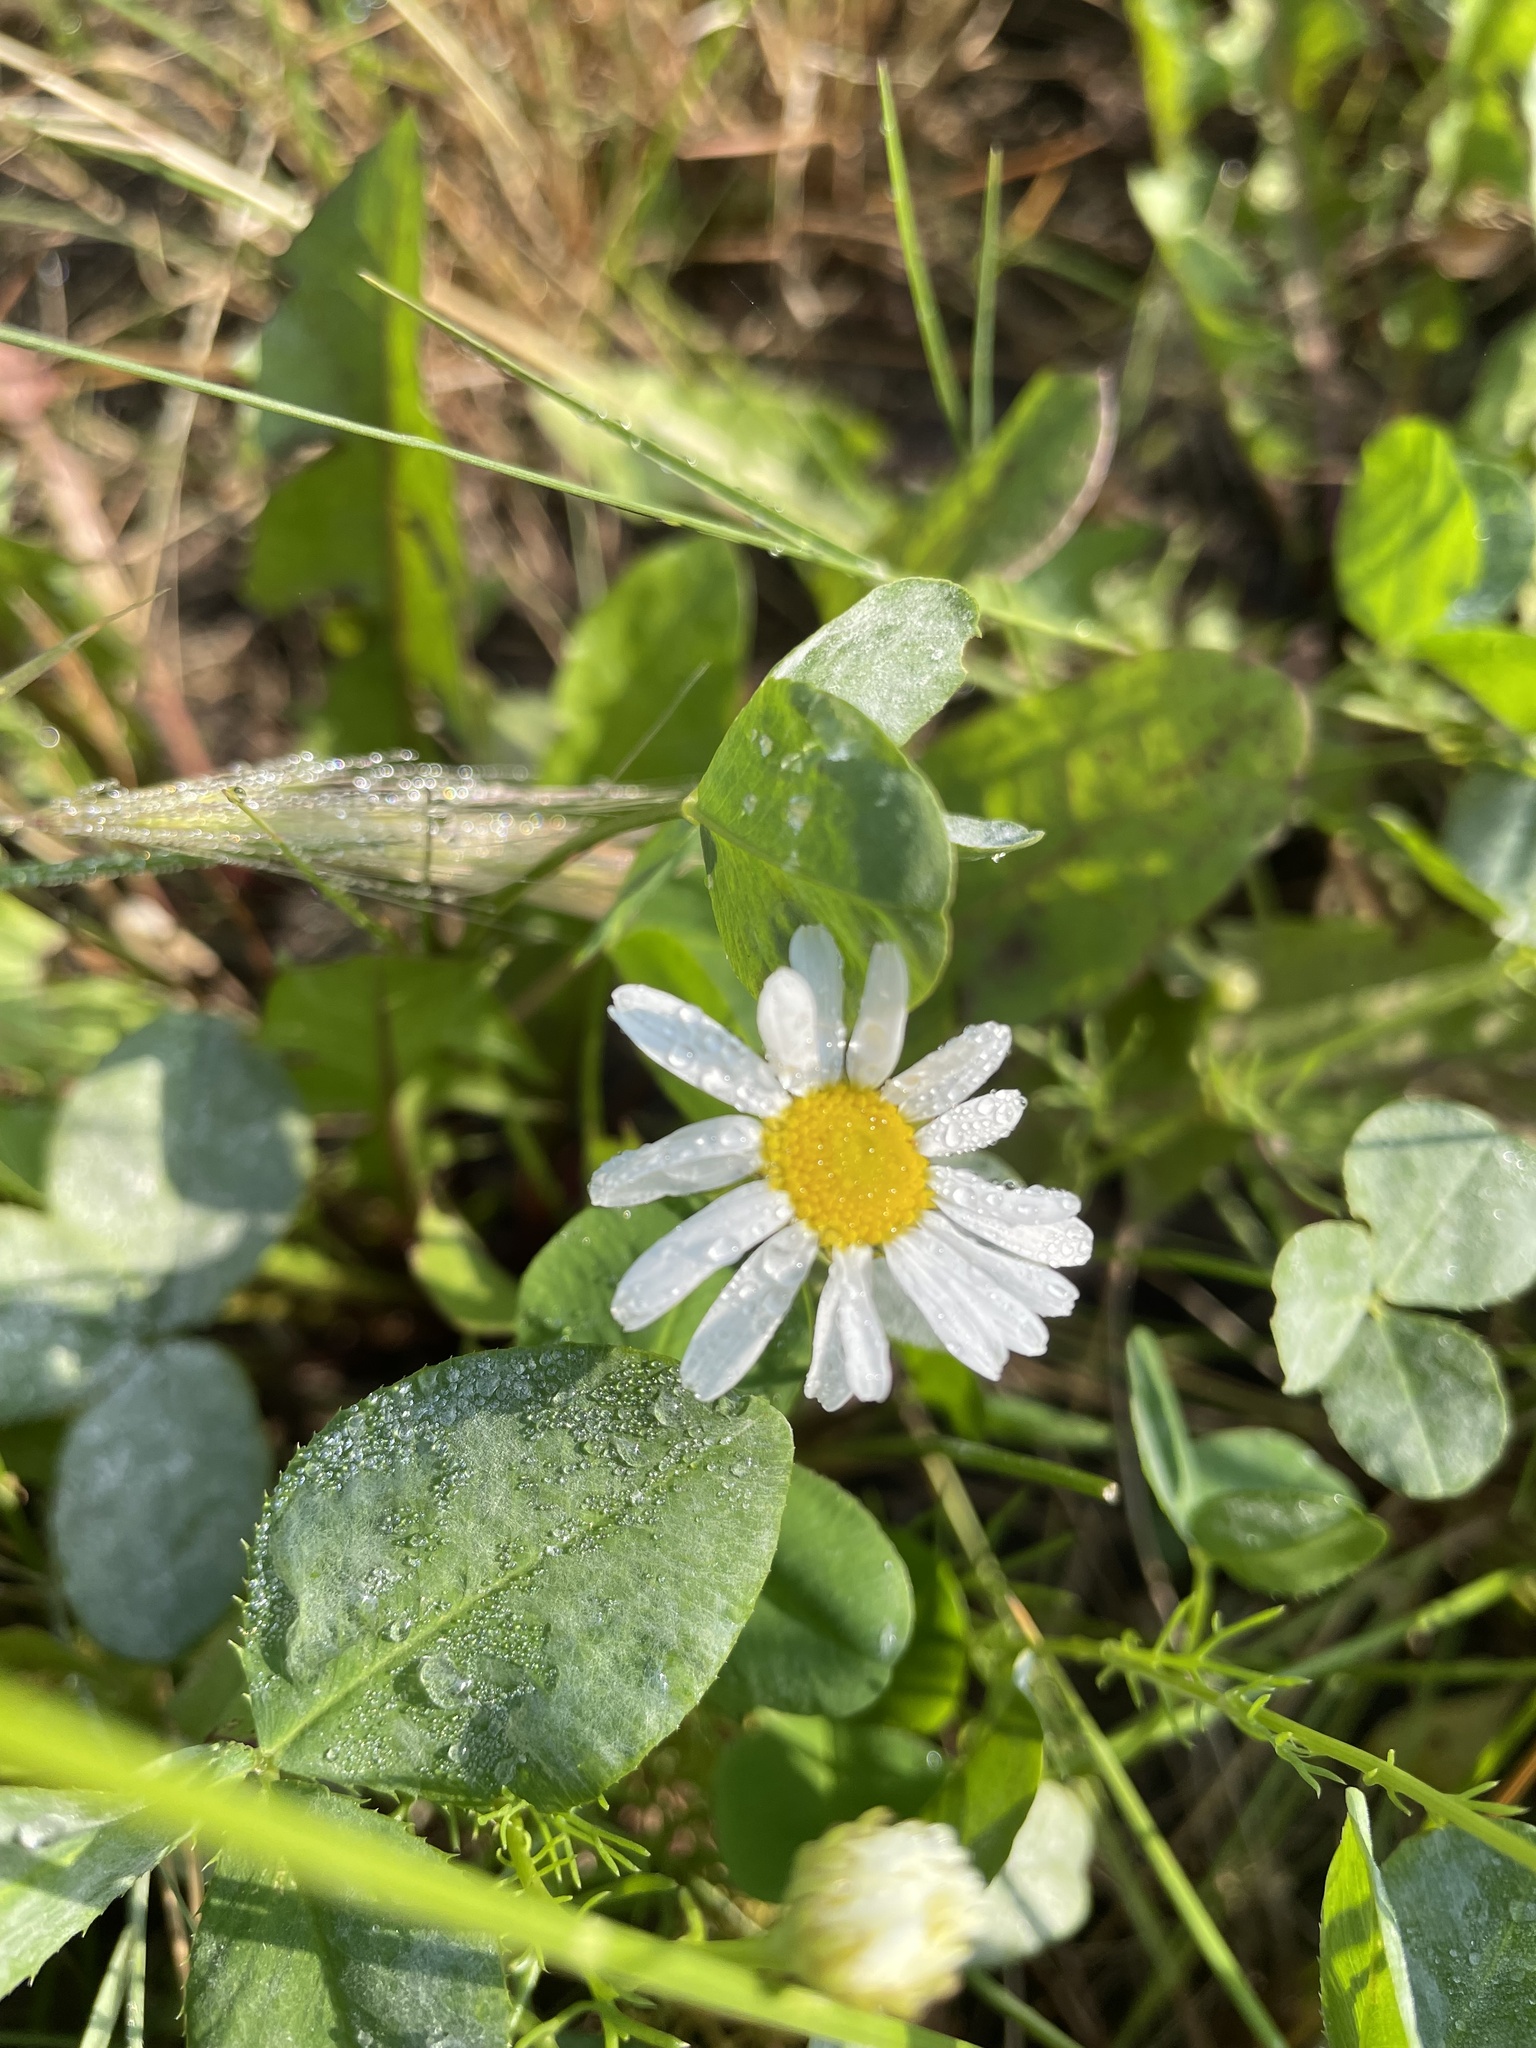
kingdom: Plantae
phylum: Tracheophyta
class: Magnoliopsida
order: Asterales
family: Asteraceae
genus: Tripleurospermum
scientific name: Tripleurospermum inodorum
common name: Scentless mayweed
